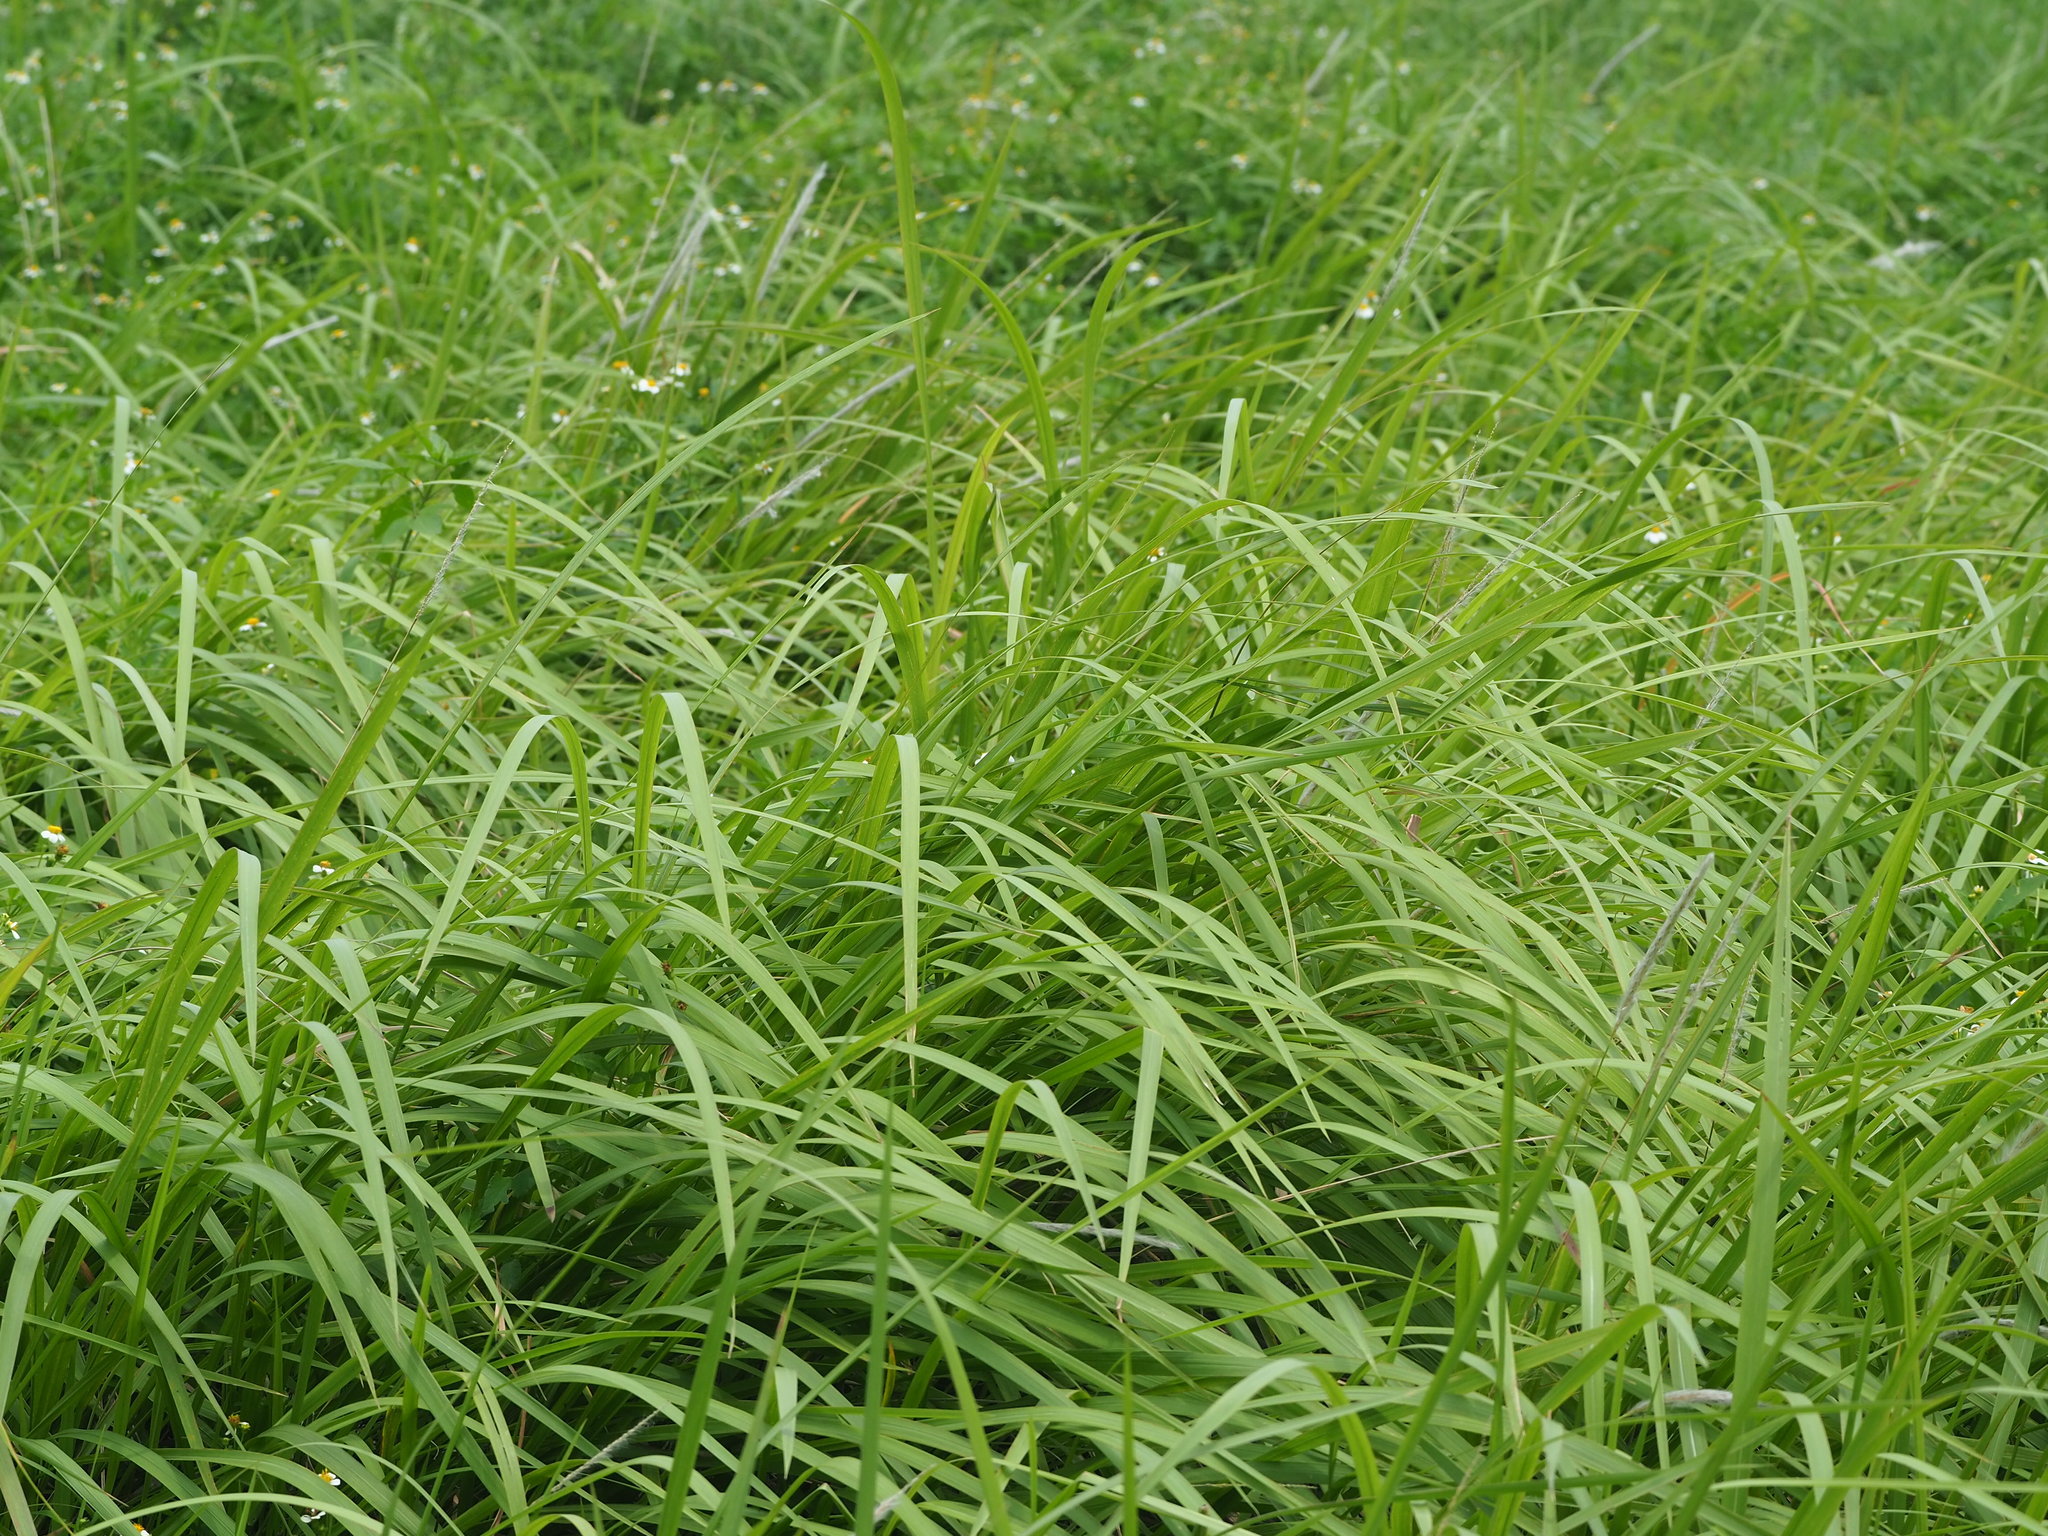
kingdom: Plantae
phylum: Tracheophyta
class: Liliopsida
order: Poales
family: Poaceae
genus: Imperata
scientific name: Imperata cylindrica
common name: Cogongrass
